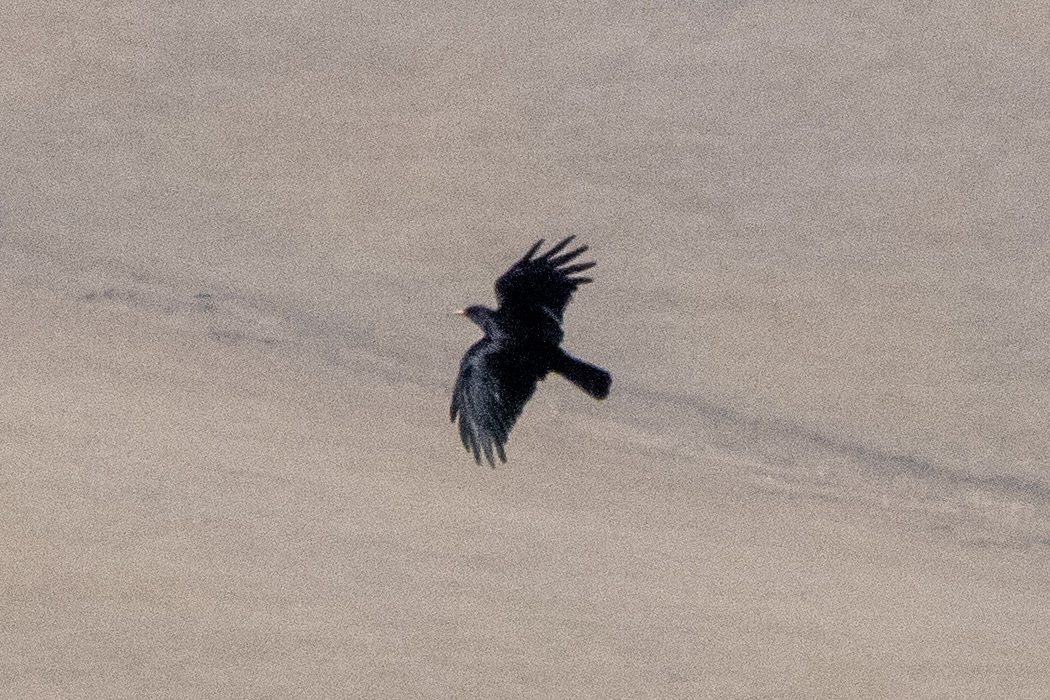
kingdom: Animalia
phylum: Chordata
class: Aves
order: Passeriformes
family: Corvidae
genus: Pyrrhocorax
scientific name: Pyrrhocorax graculus
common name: Alpine chough
